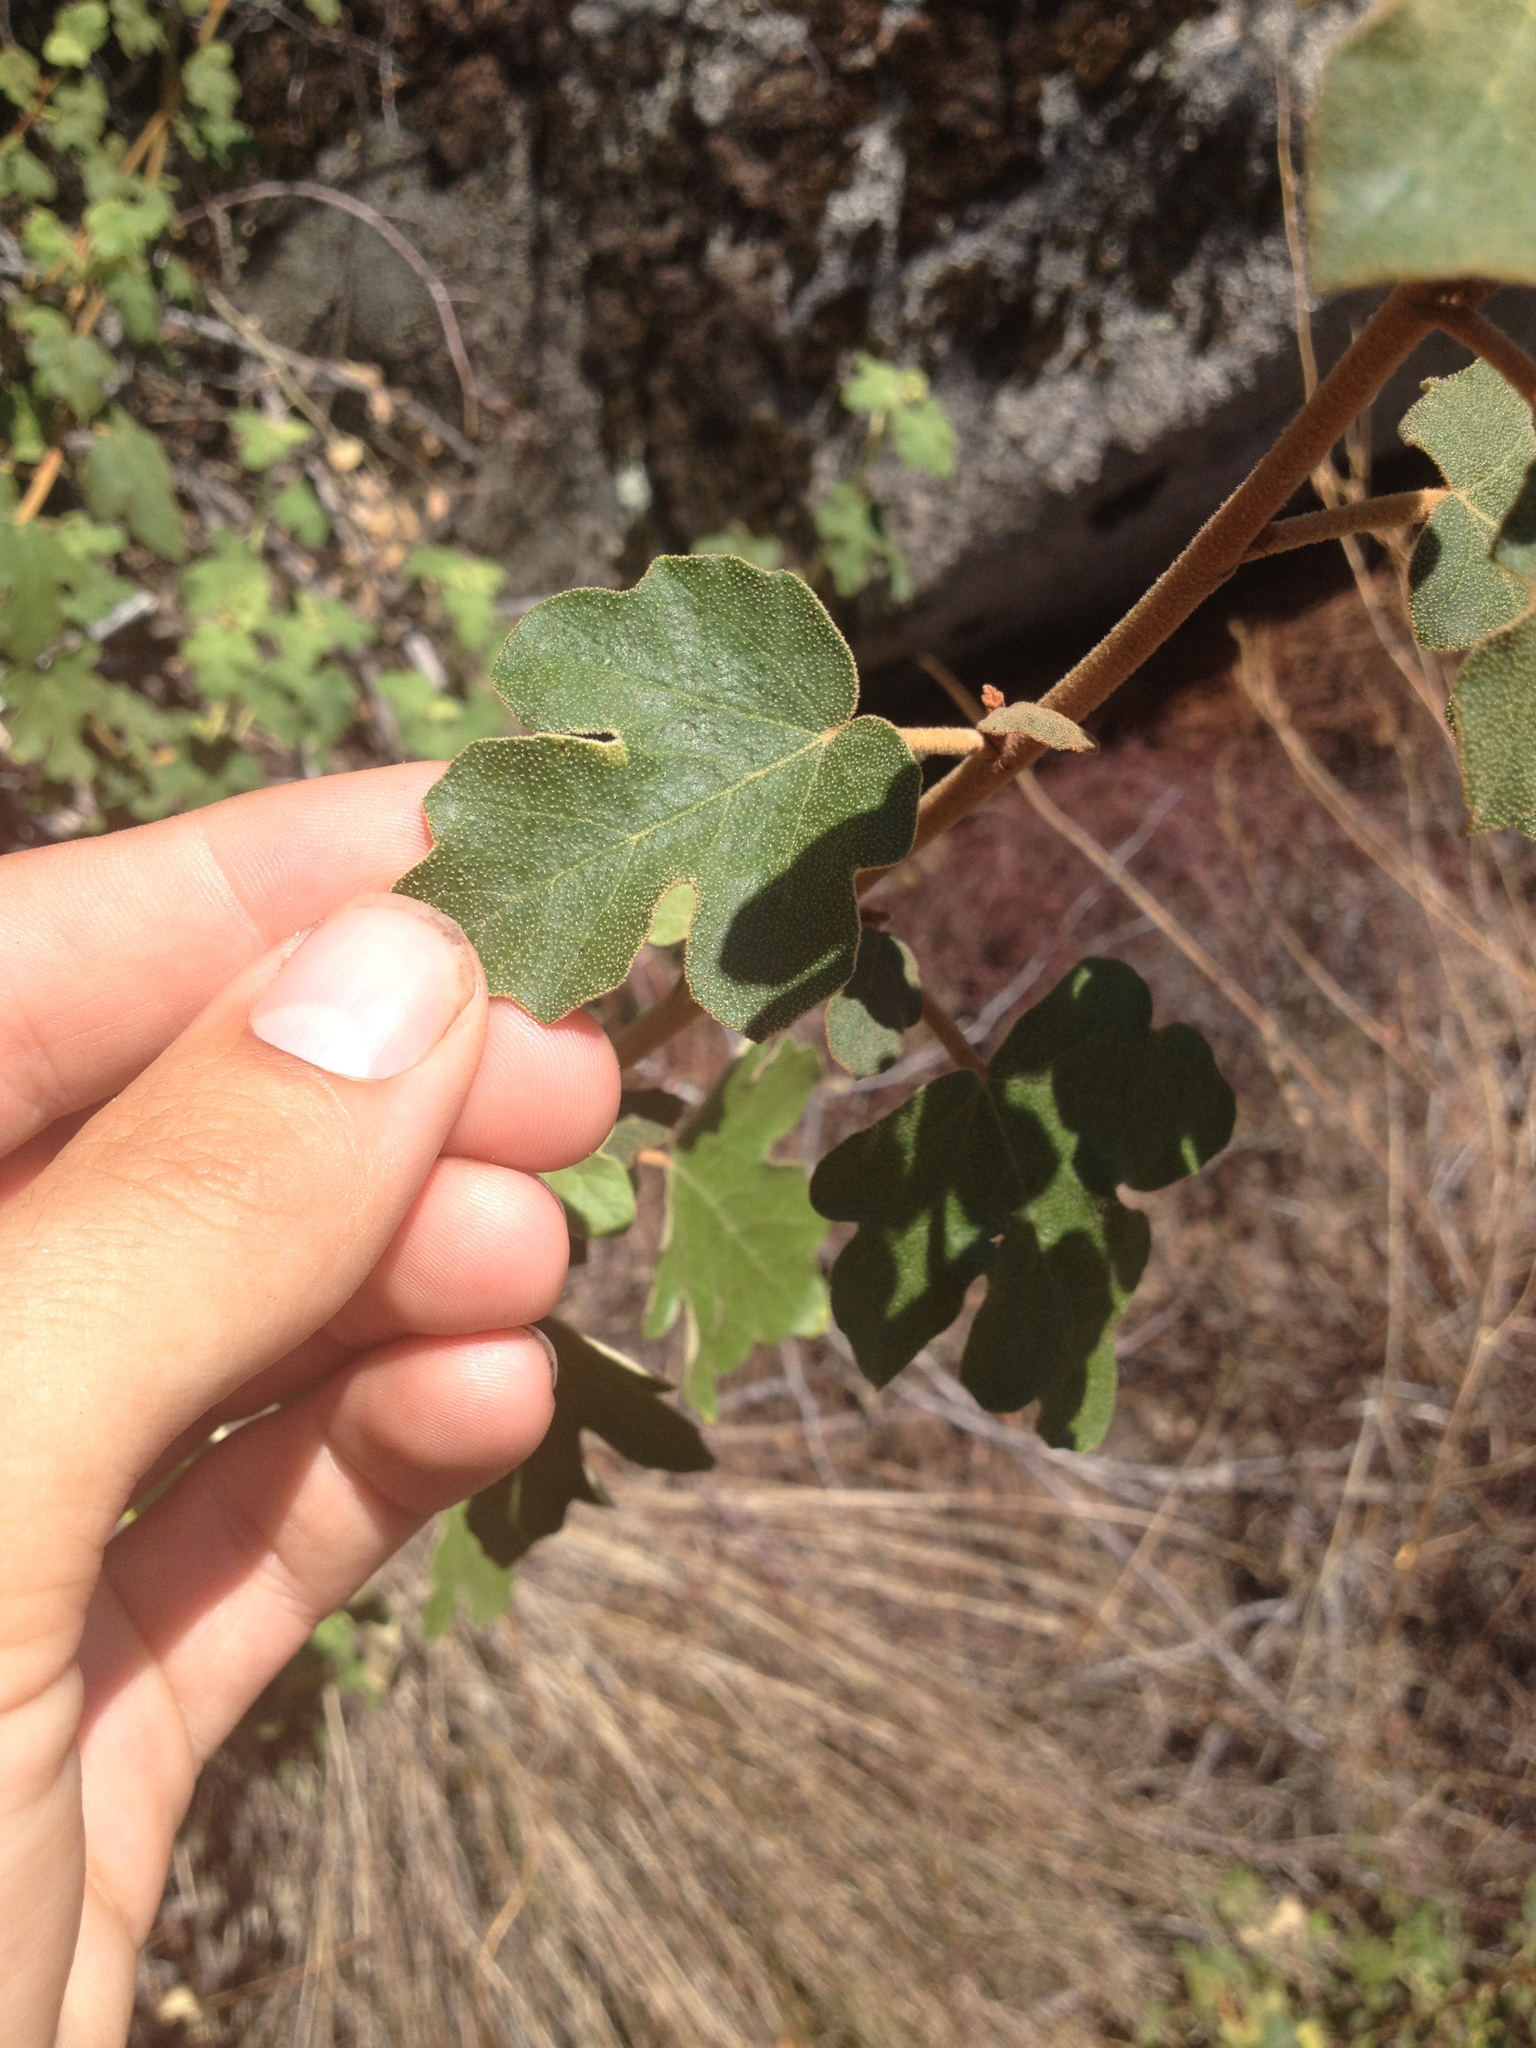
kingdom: Plantae
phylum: Tracheophyta
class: Magnoliopsida
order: Malvales
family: Malvaceae
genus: Fremontodendron
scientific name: Fremontodendron californicum
